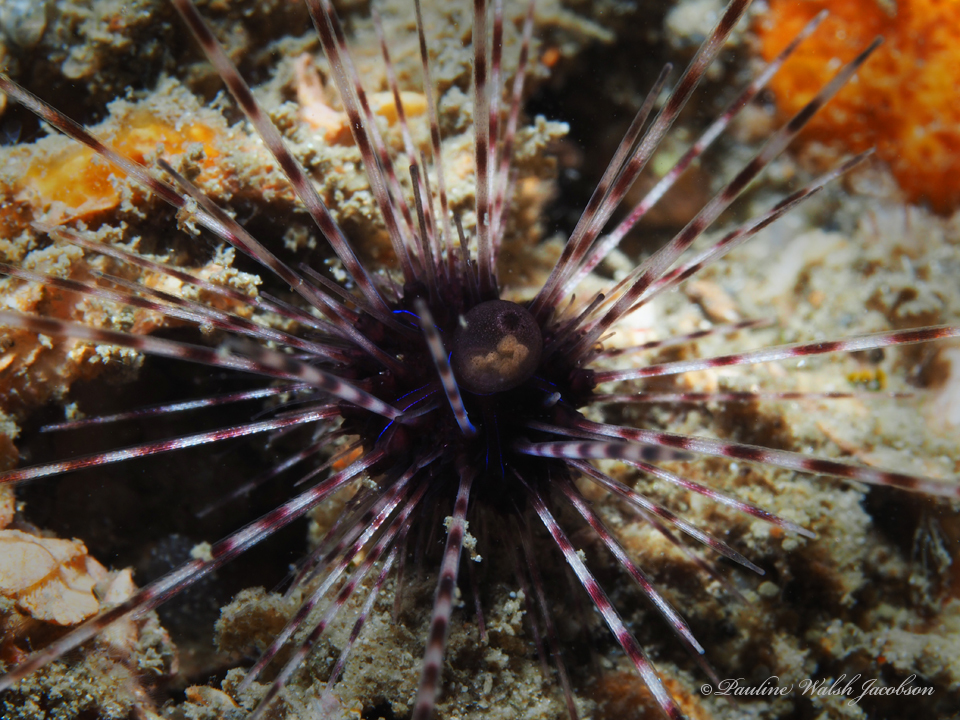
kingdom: Animalia
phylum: Echinodermata
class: Echinoidea
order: Diadematoida
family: Diadematidae
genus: Diadema
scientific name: Diadema antillarum
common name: Spiny urchin
